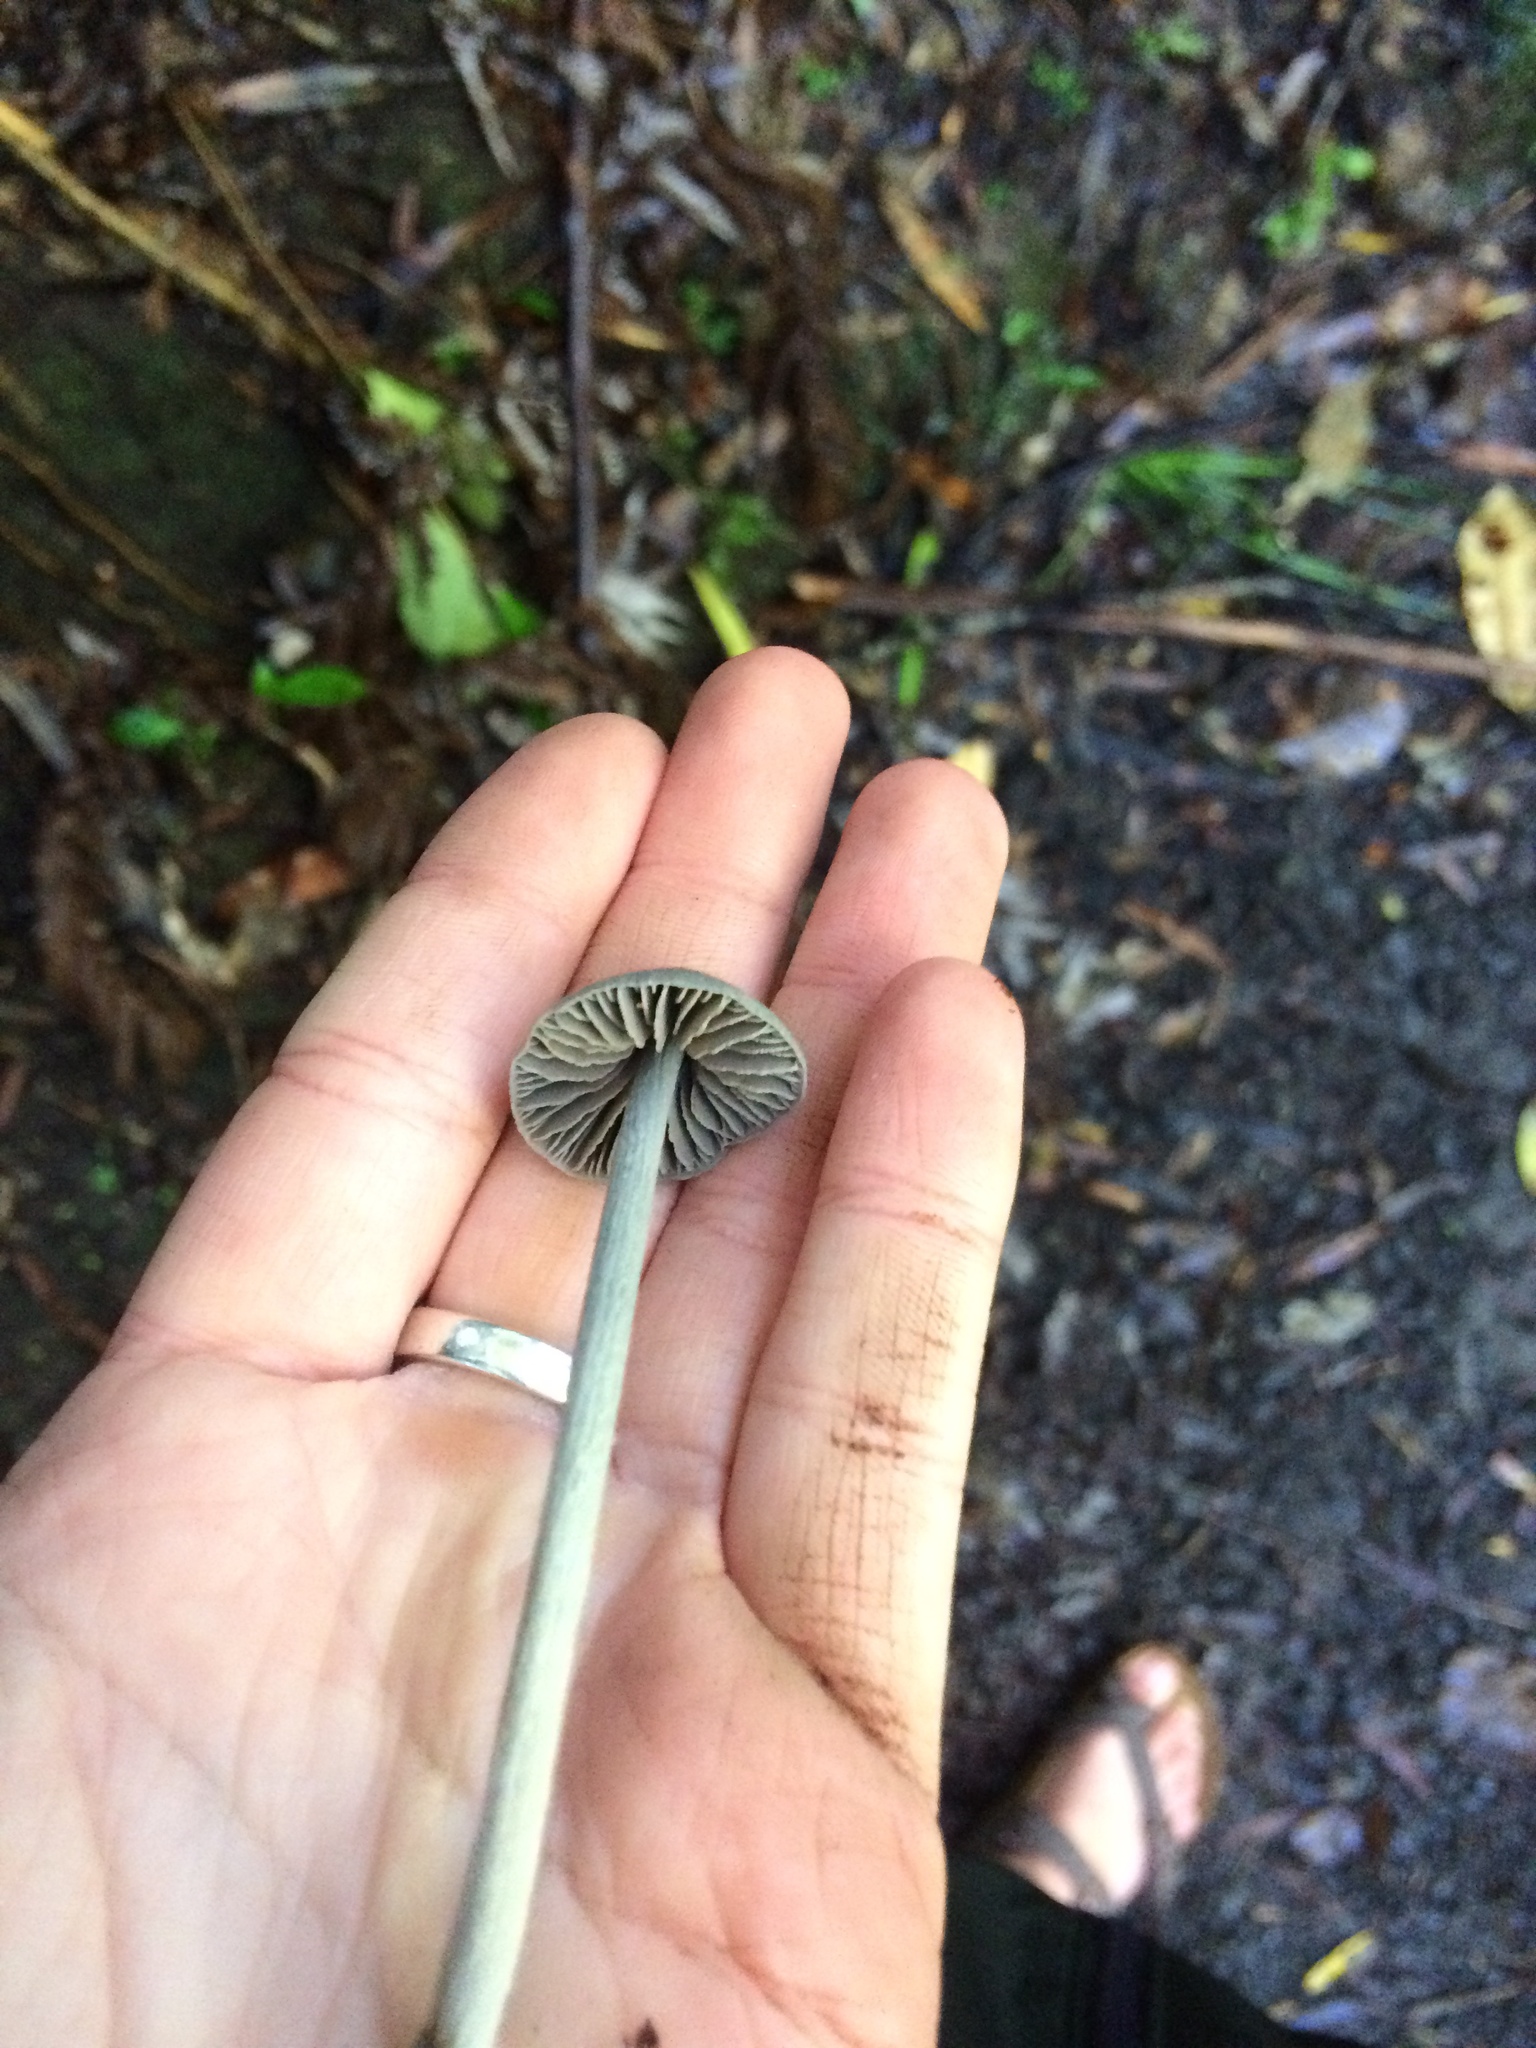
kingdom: Fungi
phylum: Basidiomycota
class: Agaricomycetes
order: Agaricales
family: Entolomataceae
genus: Entoloma
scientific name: Entoloma canoconicum
